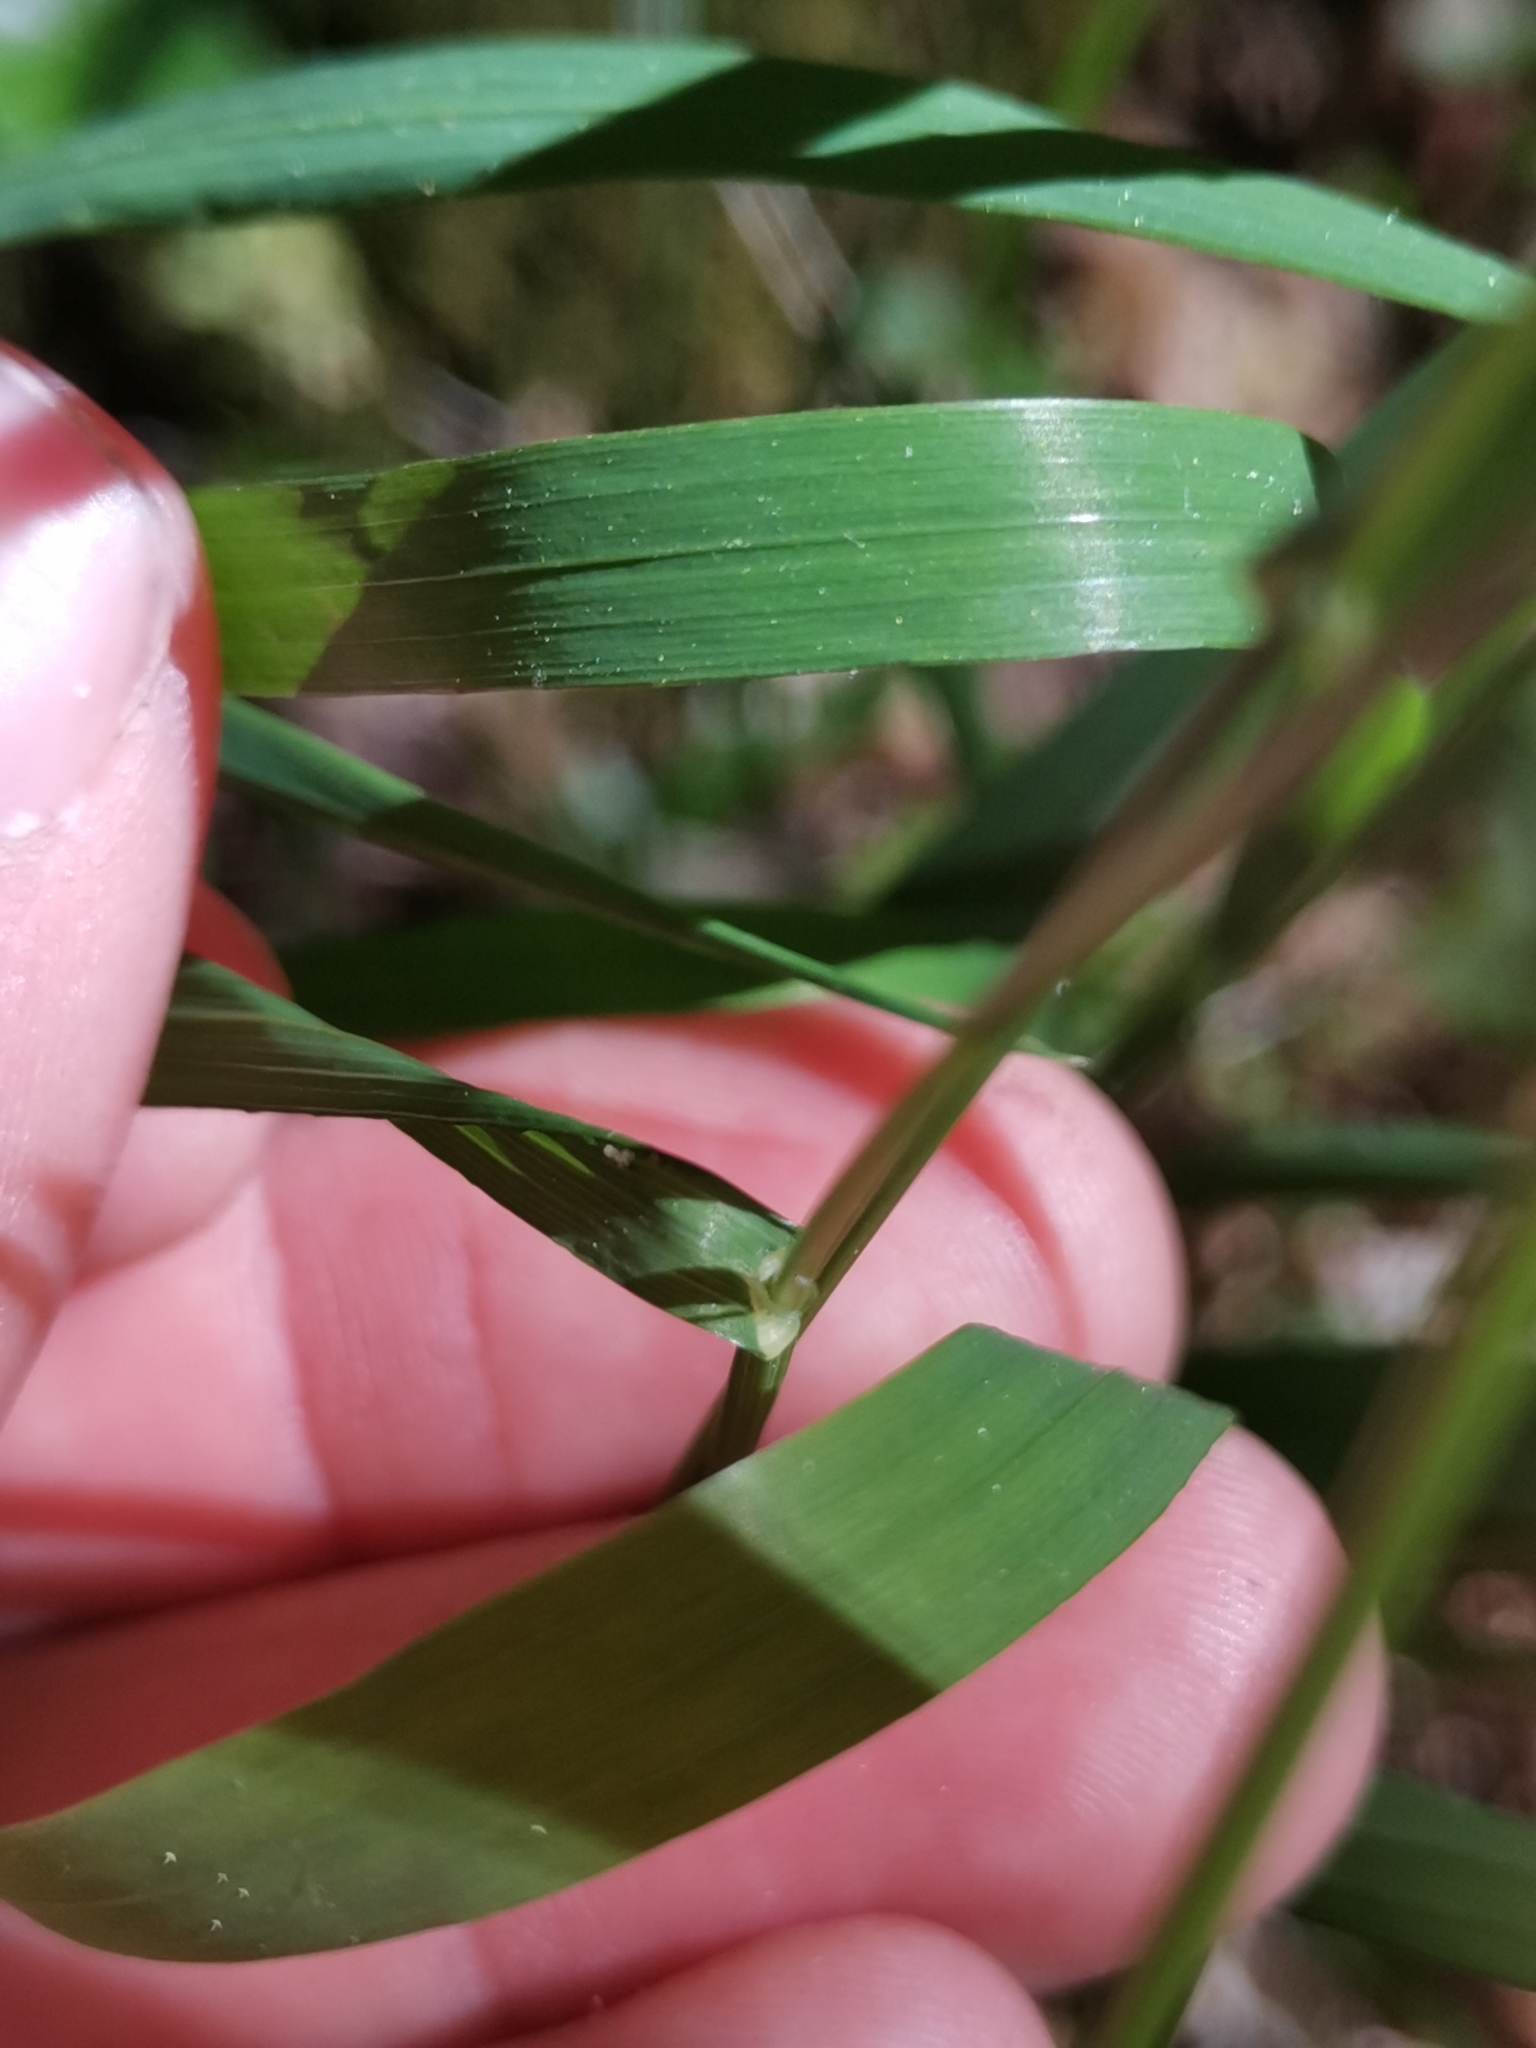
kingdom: Plantae
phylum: Tracheophyta
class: Liliopsida
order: Poales
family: Poaceae
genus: Melica
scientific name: Melica uniflora
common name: Wood melick
